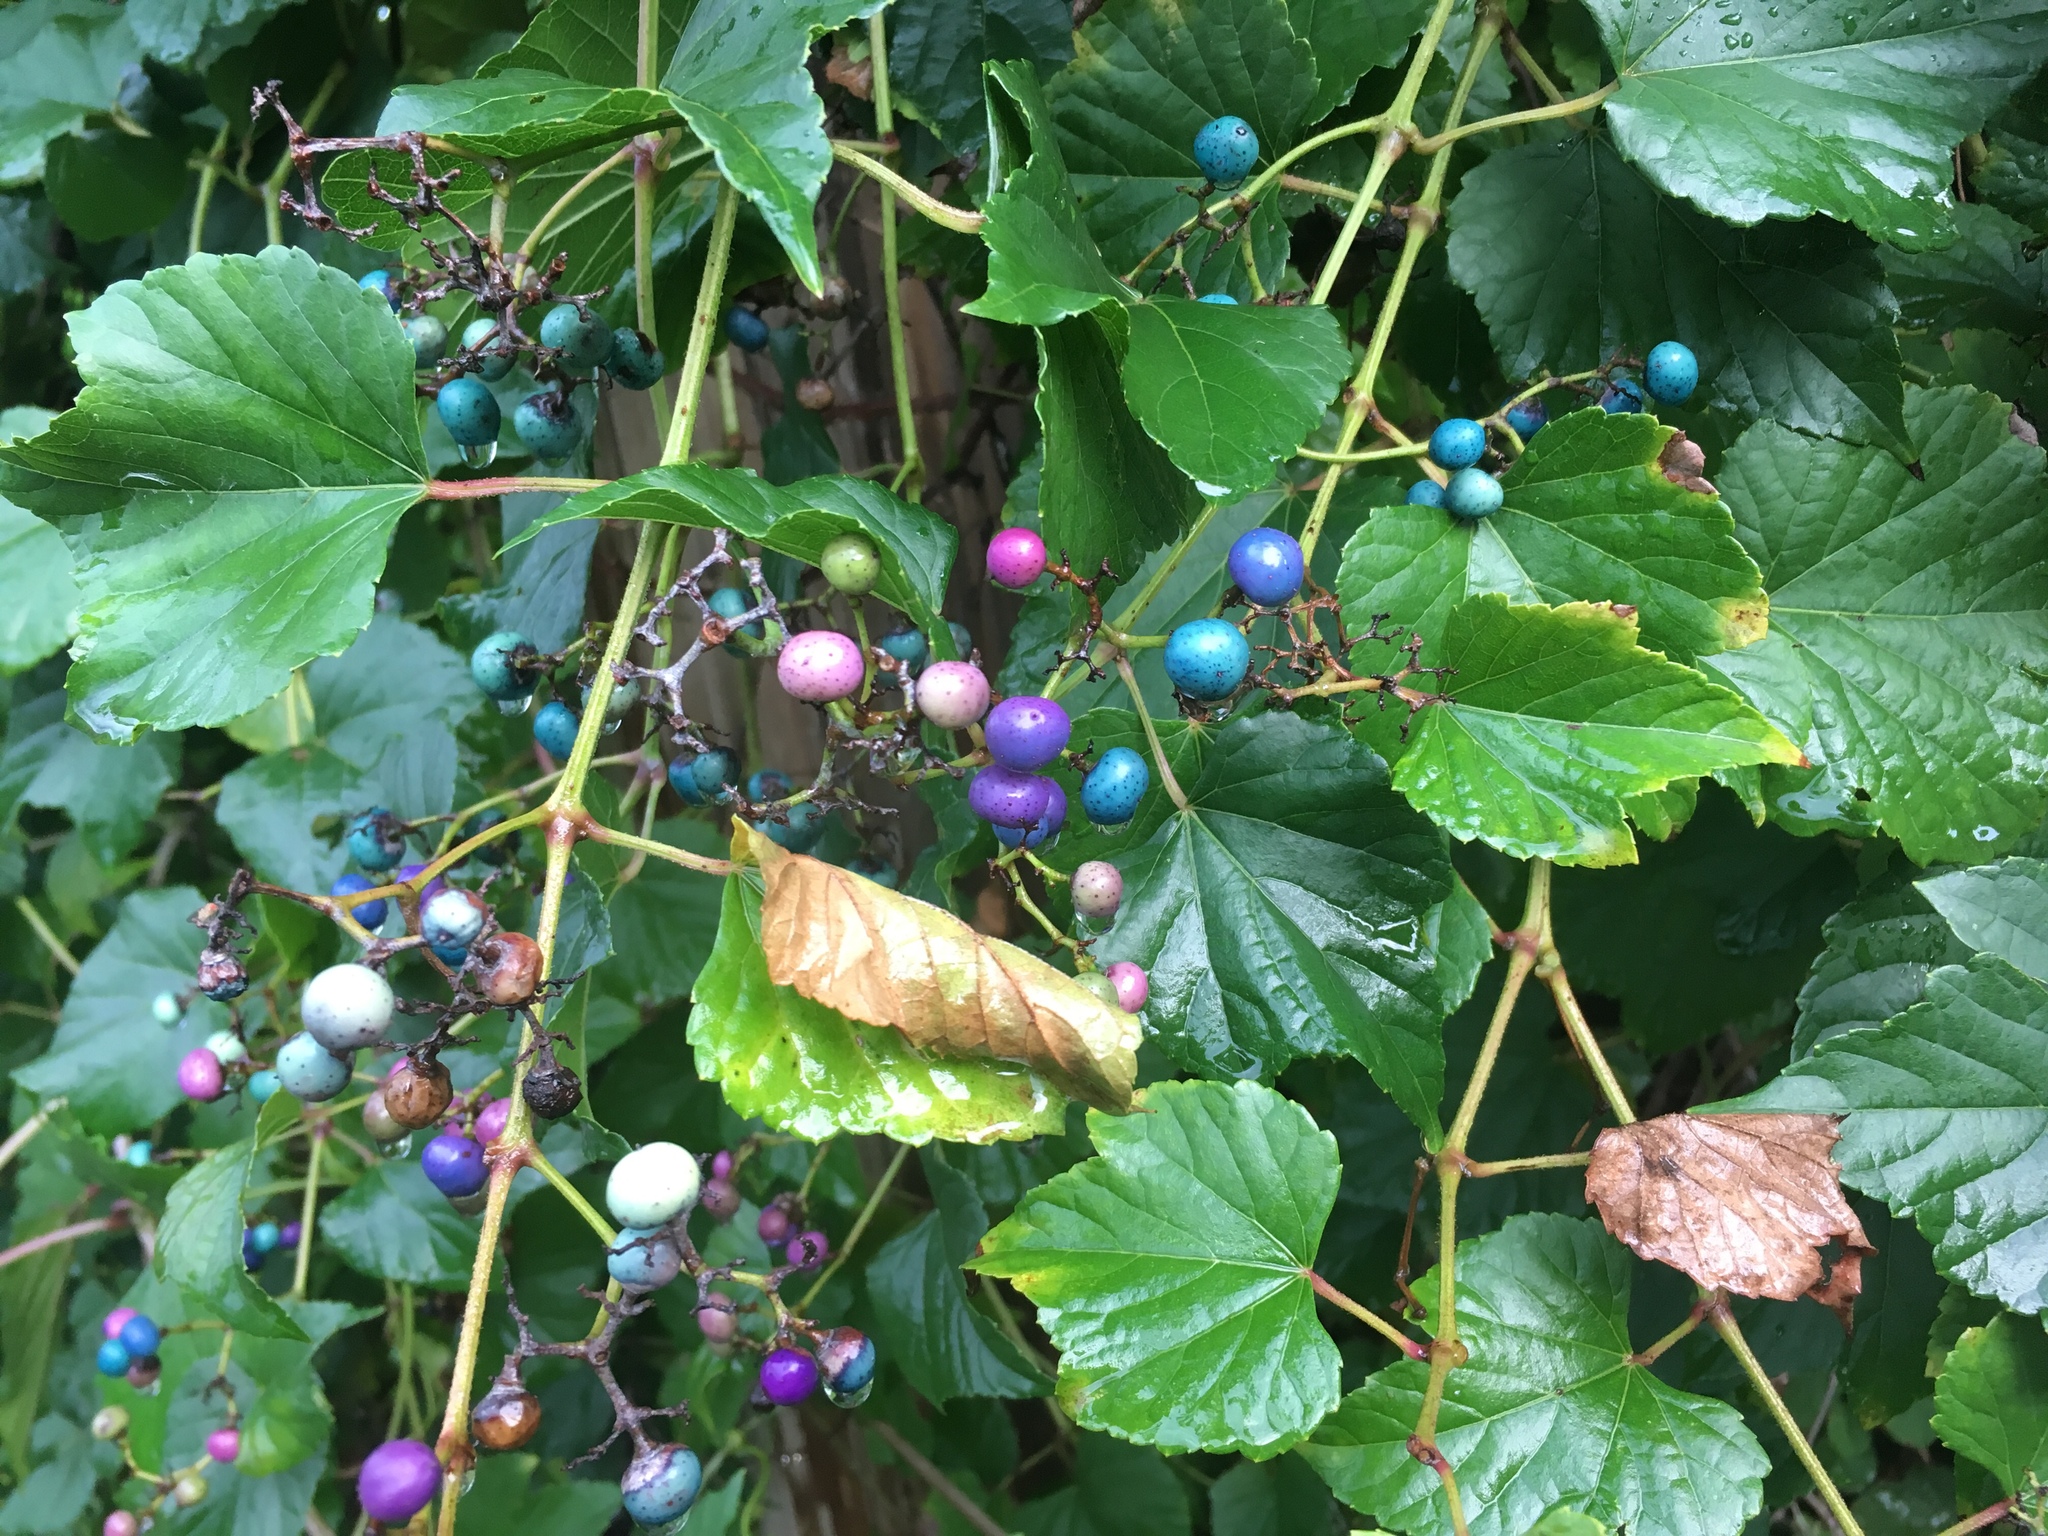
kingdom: Plantae
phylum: Tracheophyta
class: Magnoliopsida
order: Vitales
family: Vitaceae
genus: Ampelopsis
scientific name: Ampelopsis glandulosa
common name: Amur peppervine
